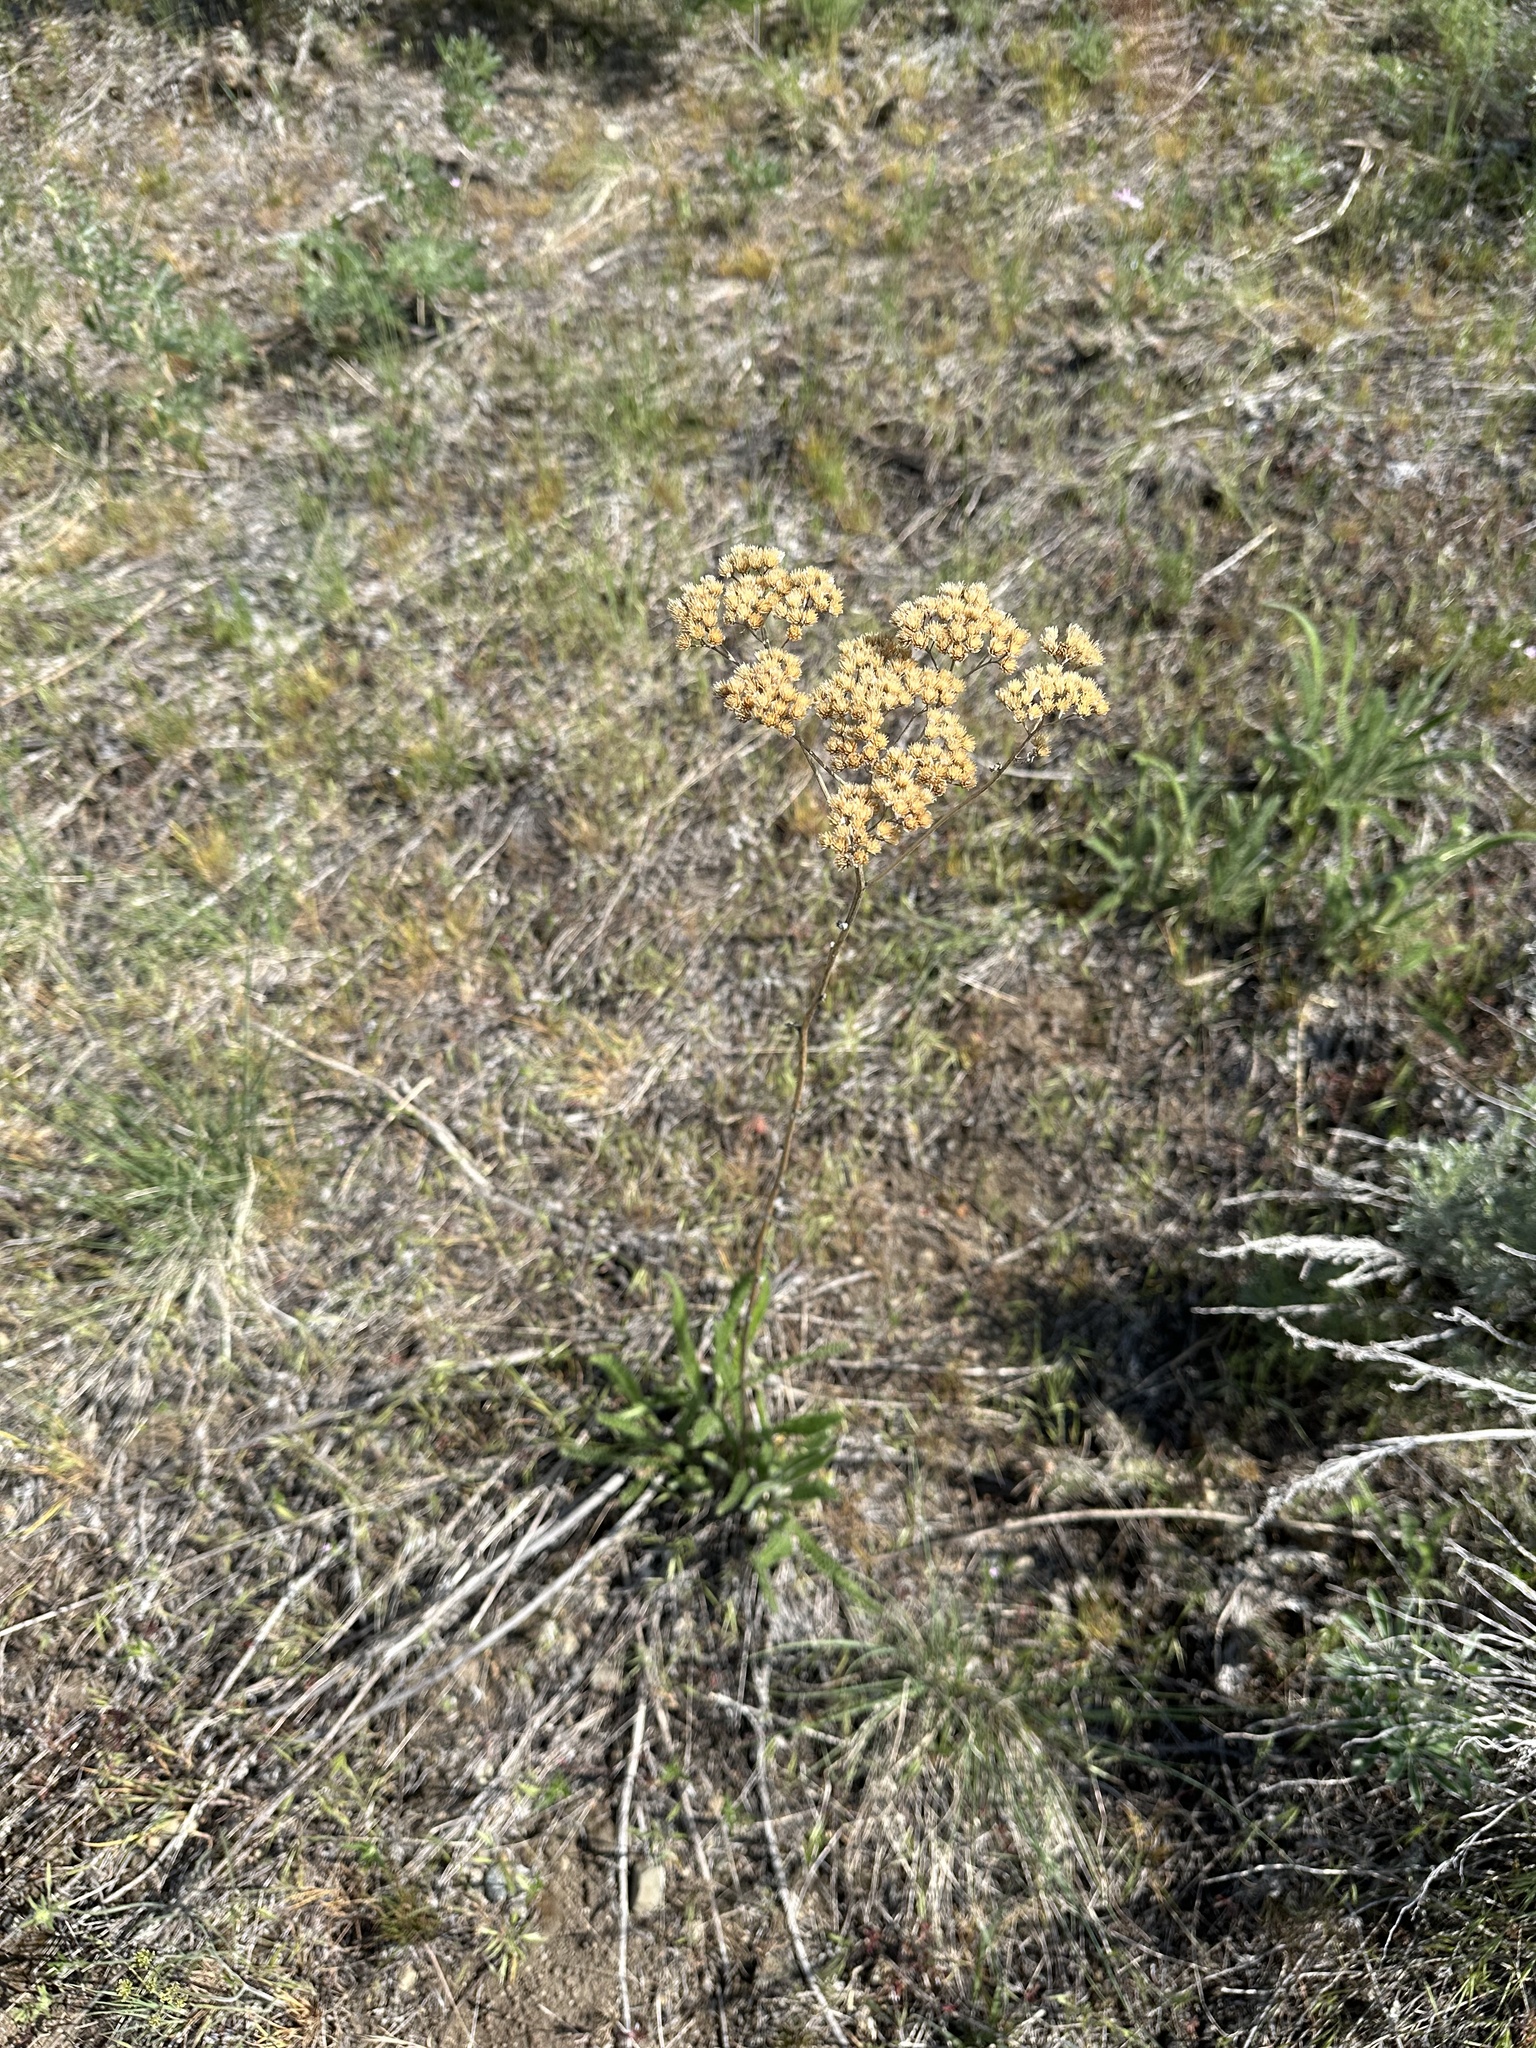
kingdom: Plantae
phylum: Tracheophyta
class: Magnoliopsida
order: Asterales
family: Asteraceae
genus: Achillea
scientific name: Achillea millefolium
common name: Yarrow
